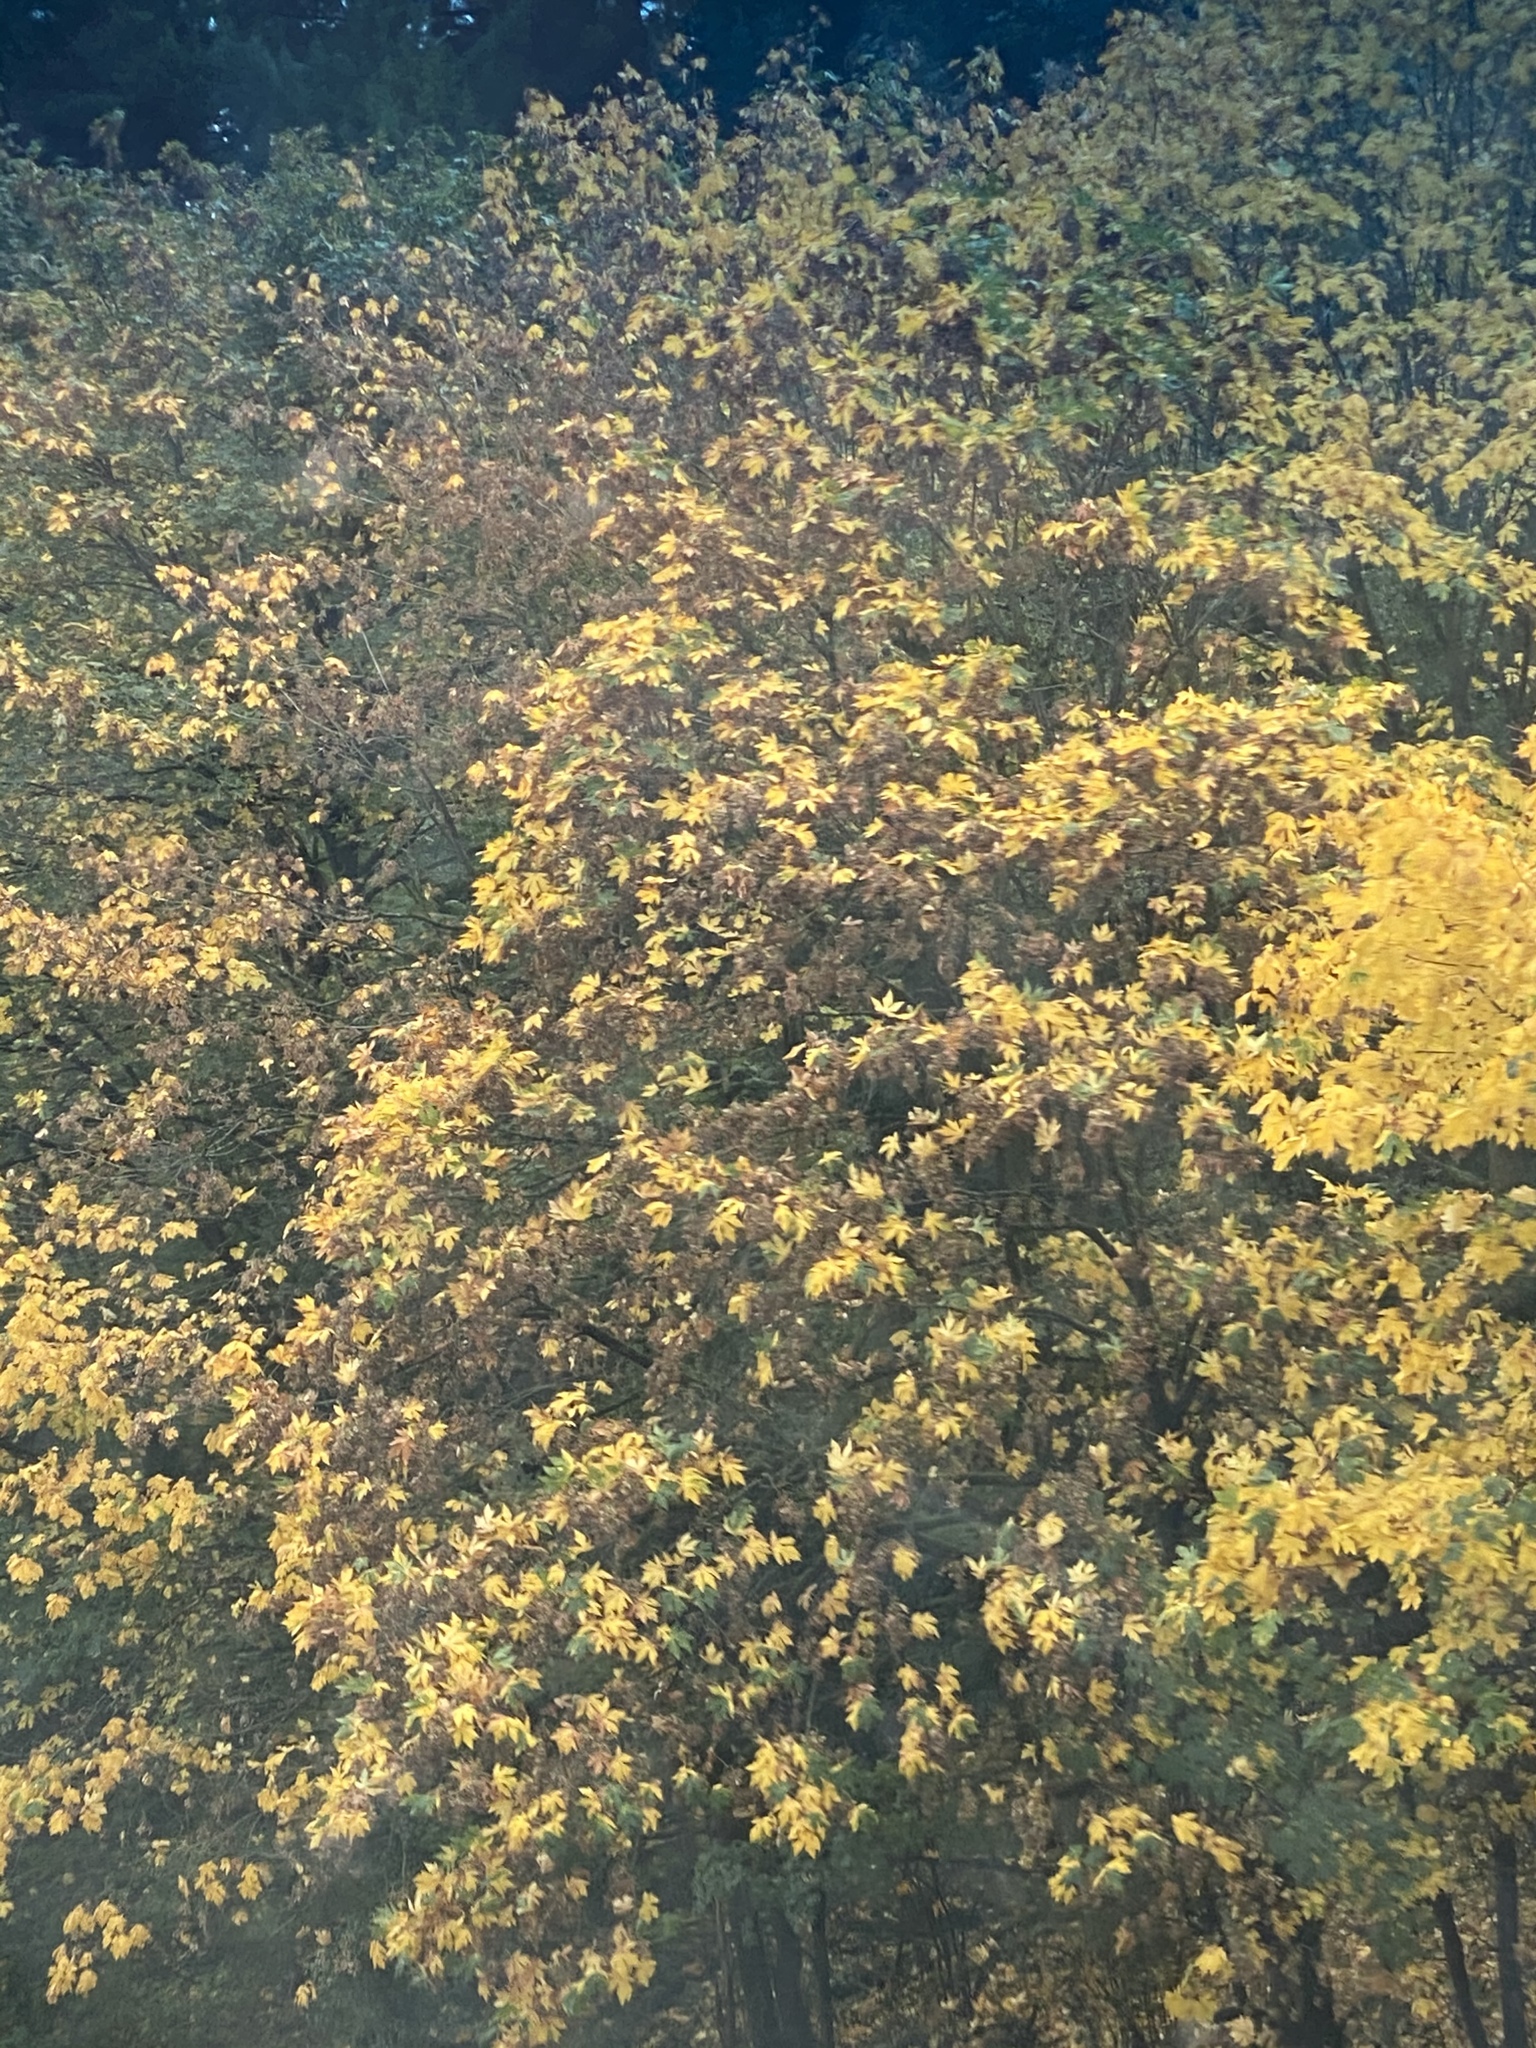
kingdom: Plantae
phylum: Tracheophyta
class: Magnoliopsida
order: Sapindales
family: Sapindaceae
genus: Acer
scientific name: Acer macrophyllum
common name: Oregon maple
